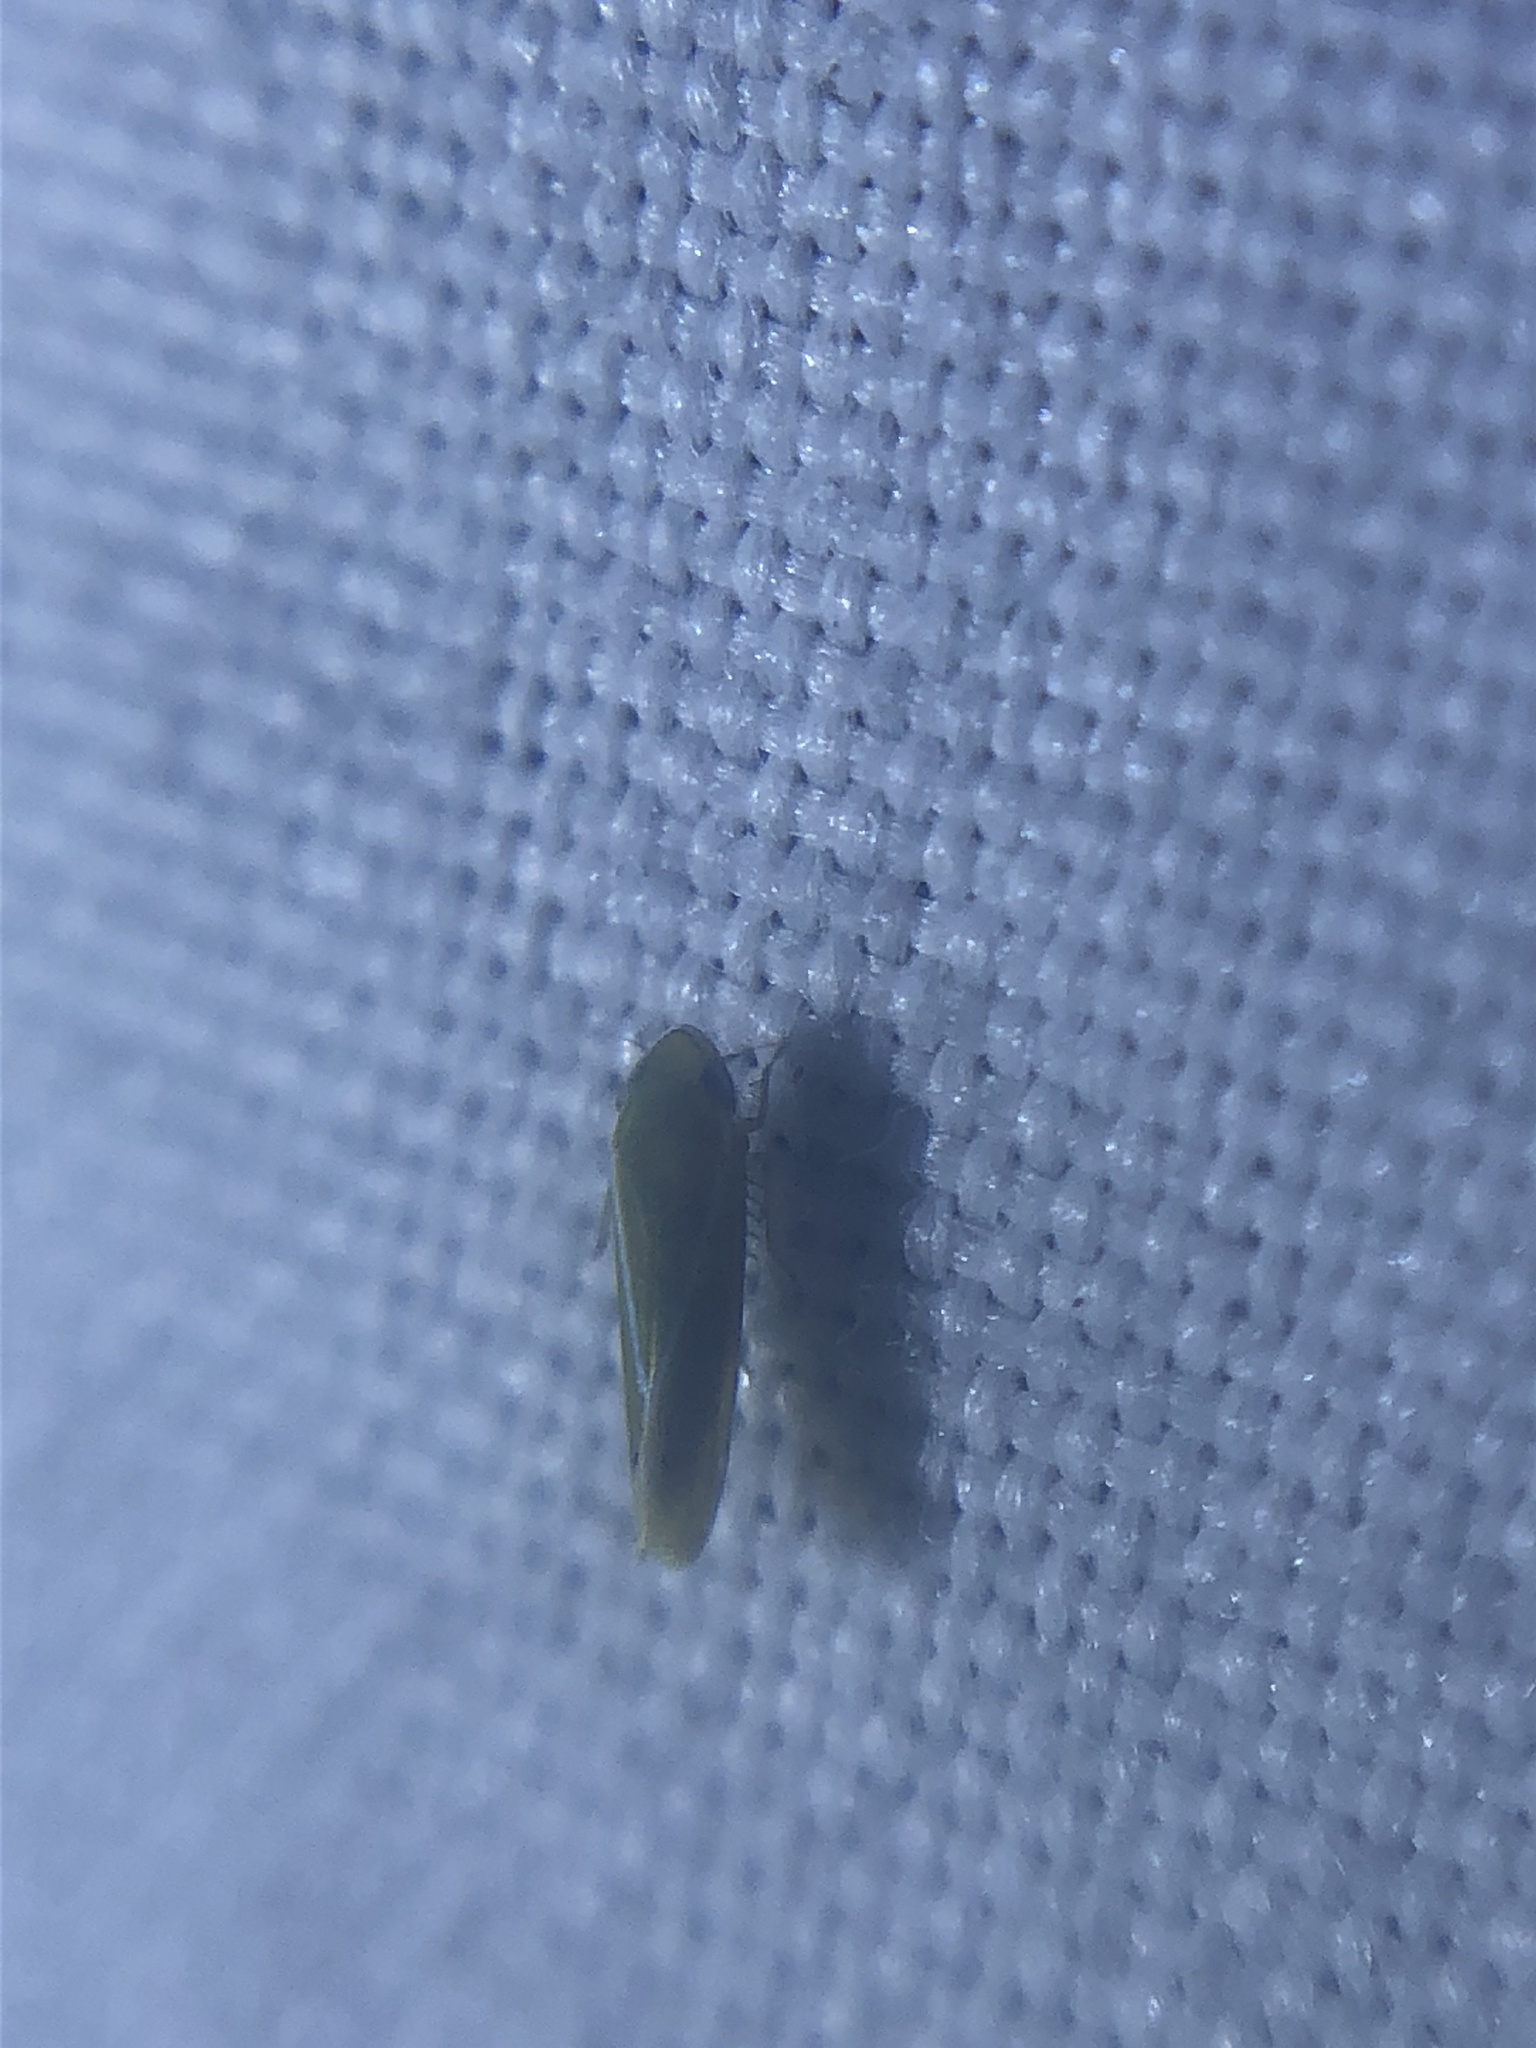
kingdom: Animalia
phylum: Arthropoda
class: Insecta
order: Hemiptera
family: Cicadellidae
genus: Alconeura
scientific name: Alconeura fulminea
